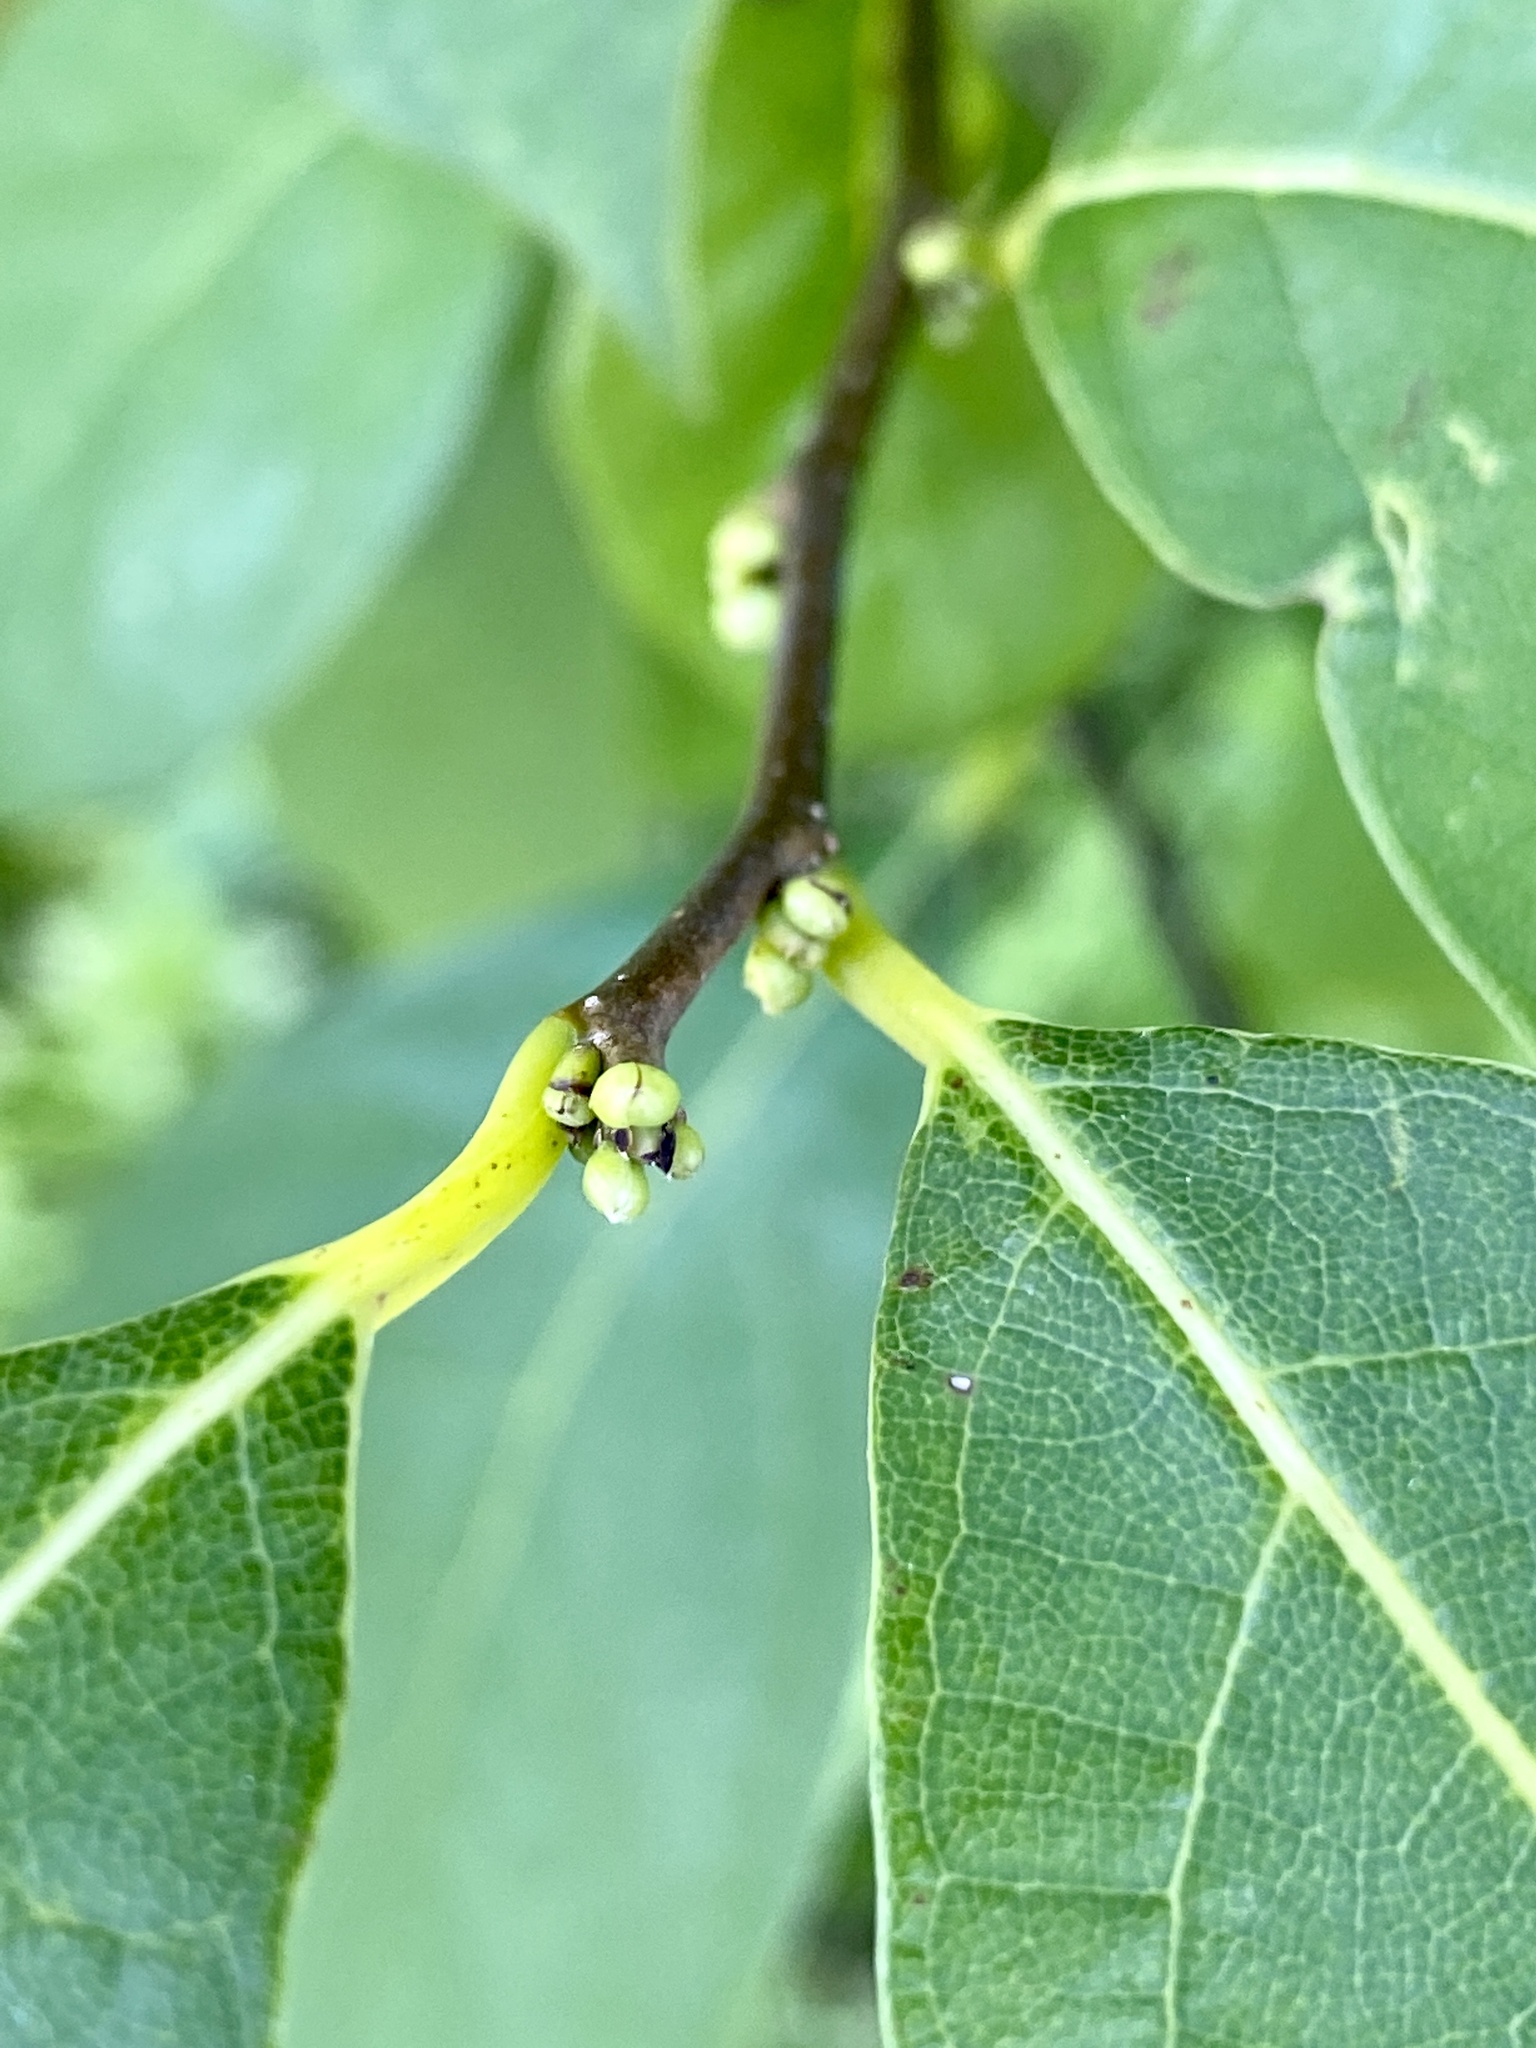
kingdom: Plantae
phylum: Tracheophyta
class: Magnoliopsida
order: Laurales
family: Lauraceae
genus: Lindera
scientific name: Lindera benzoin
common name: Spicebush
